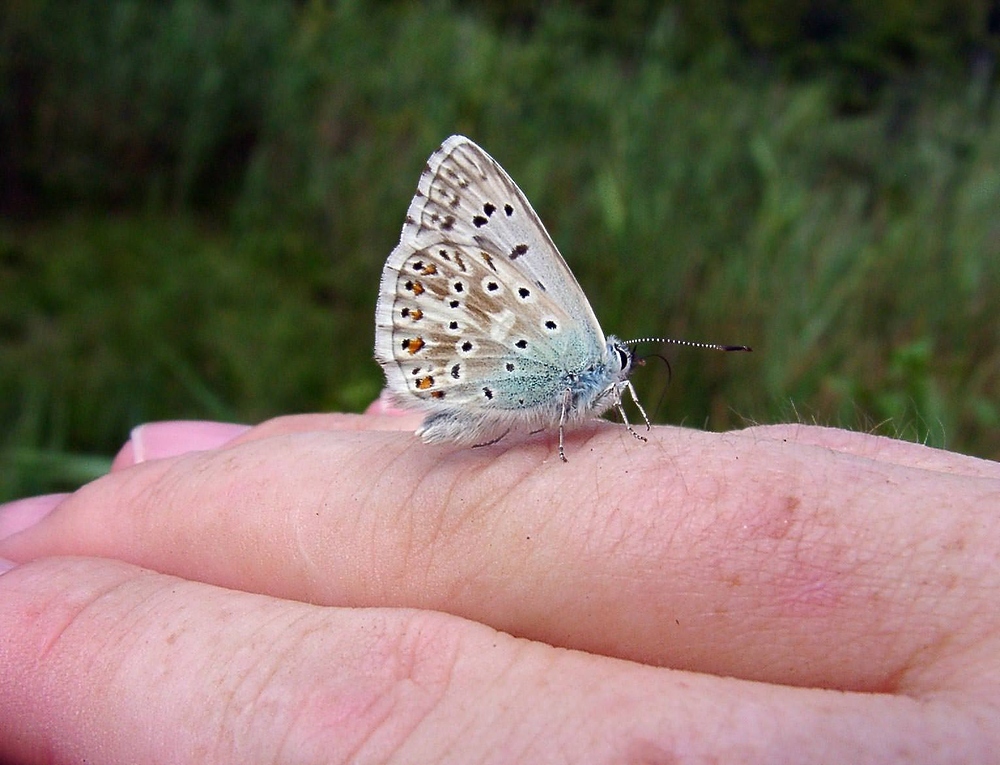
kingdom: Animalia
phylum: Arthropoda
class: Insecta
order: Lepidoptera
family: Lycaenidae
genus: Lysandra
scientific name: Lysandra coridon
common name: Chalkhill blue
